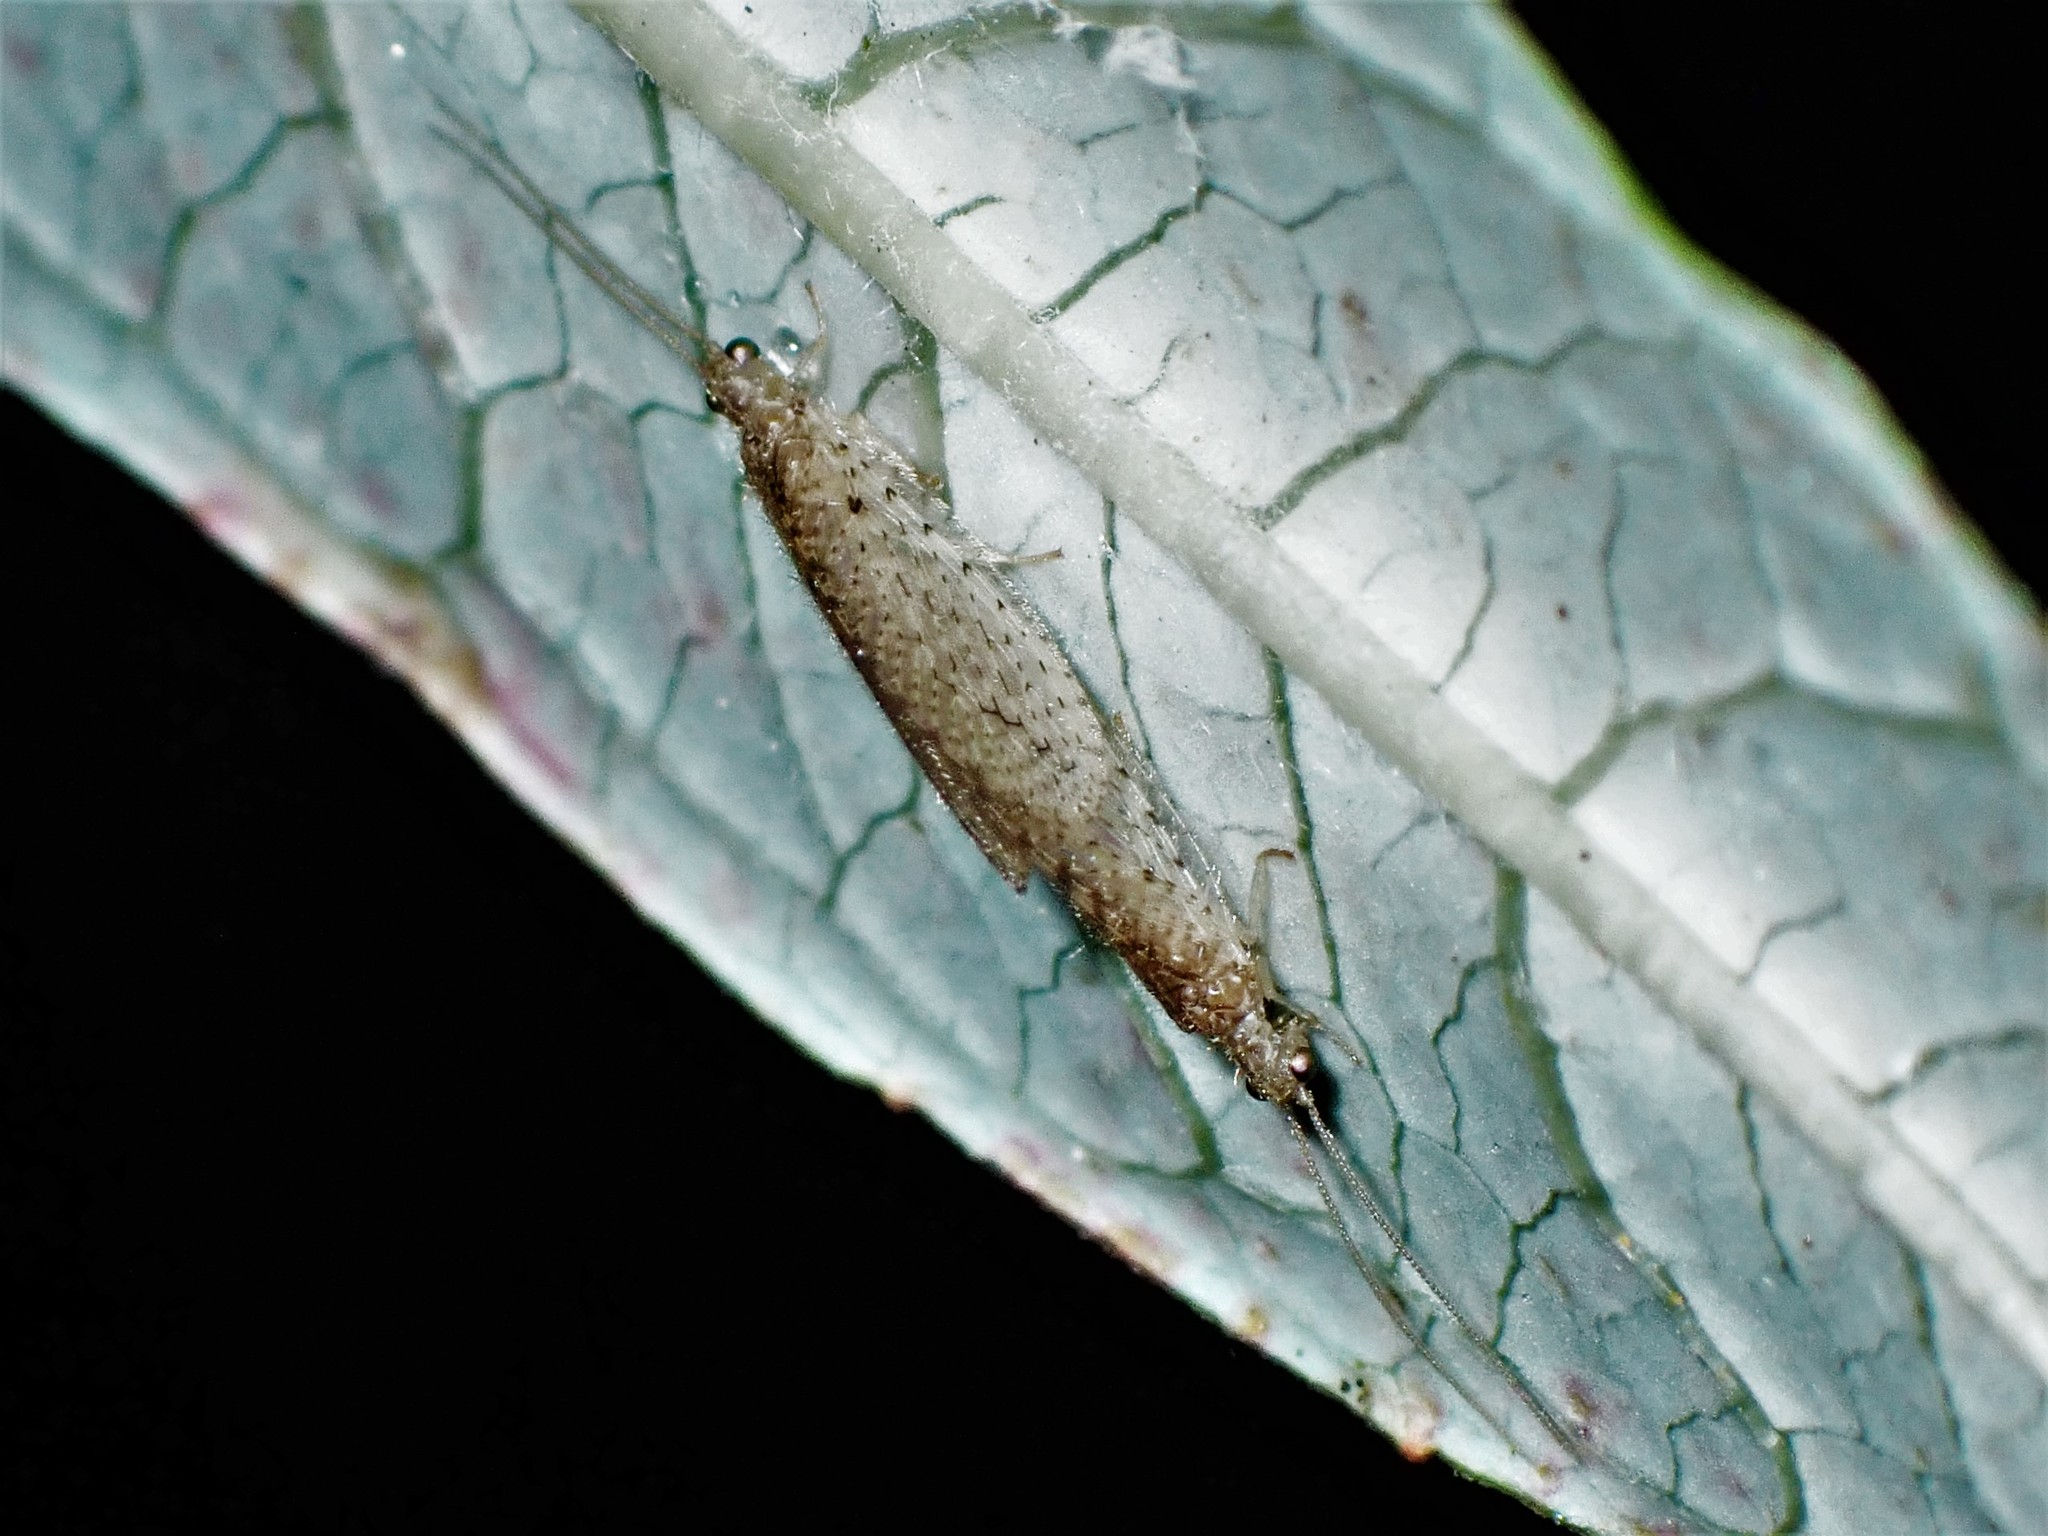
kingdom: Animalia
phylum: Arthropoda
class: Insecta
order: Neuroptera
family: Hemerobiidae
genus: Micromus
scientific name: Micromus tasmaniae
